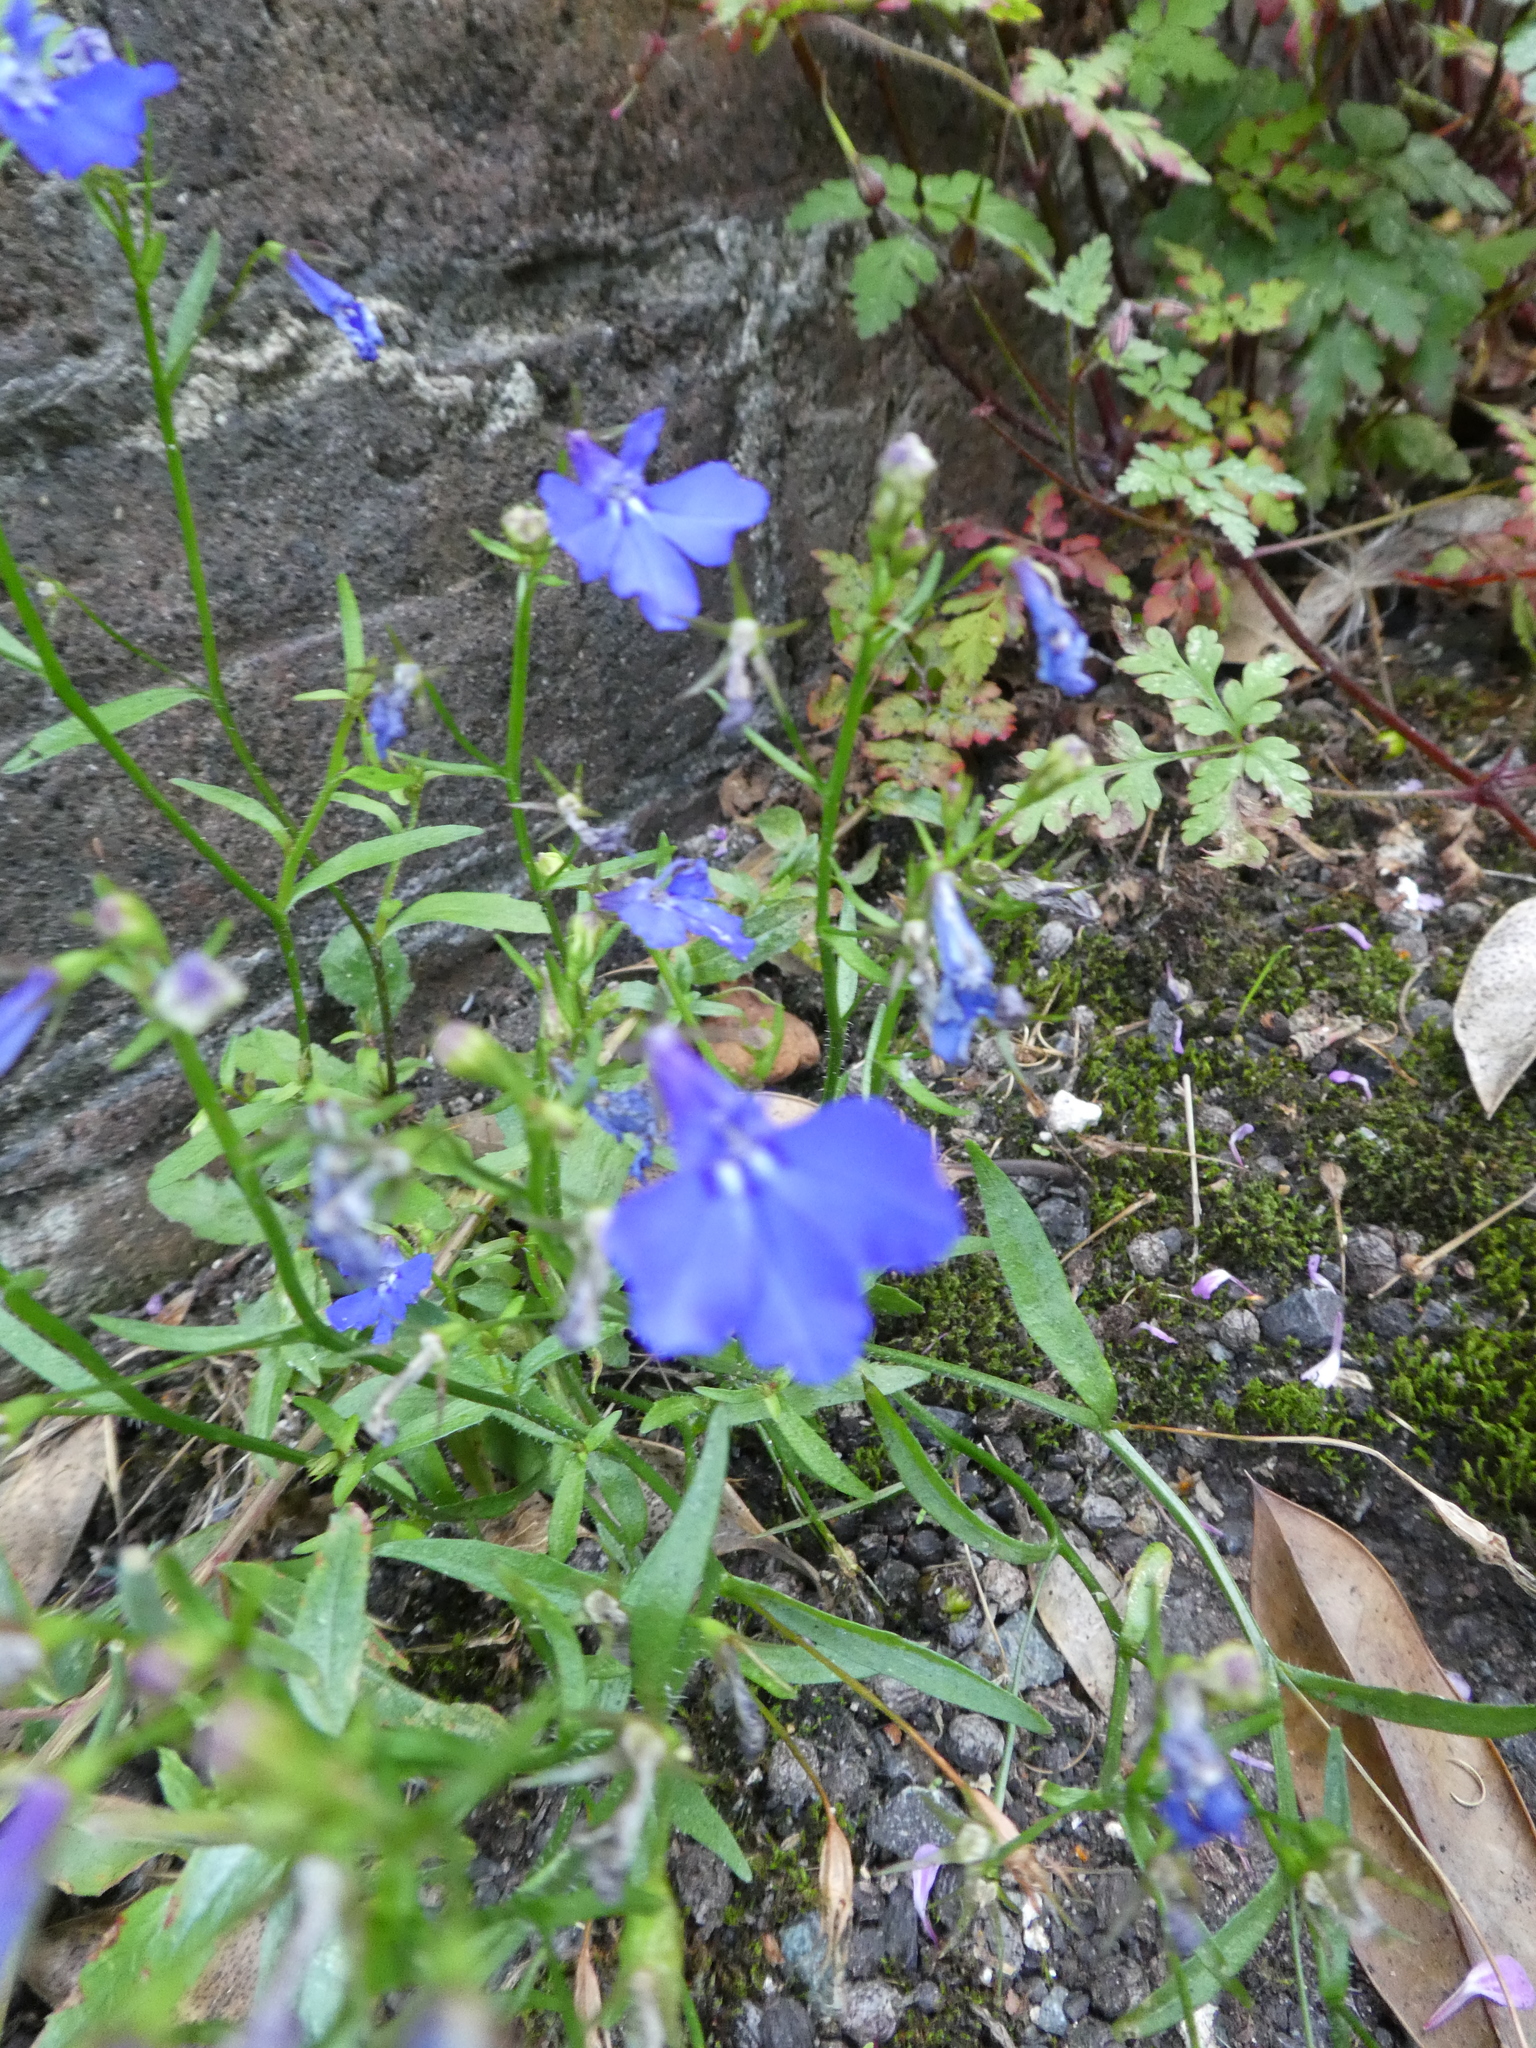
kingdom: Plantae
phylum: Tracheophyta
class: Magnoliopsida
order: Asterales
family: Campanulaceae
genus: Lobelia
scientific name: Lobelia erinus
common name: Edging lobelia
